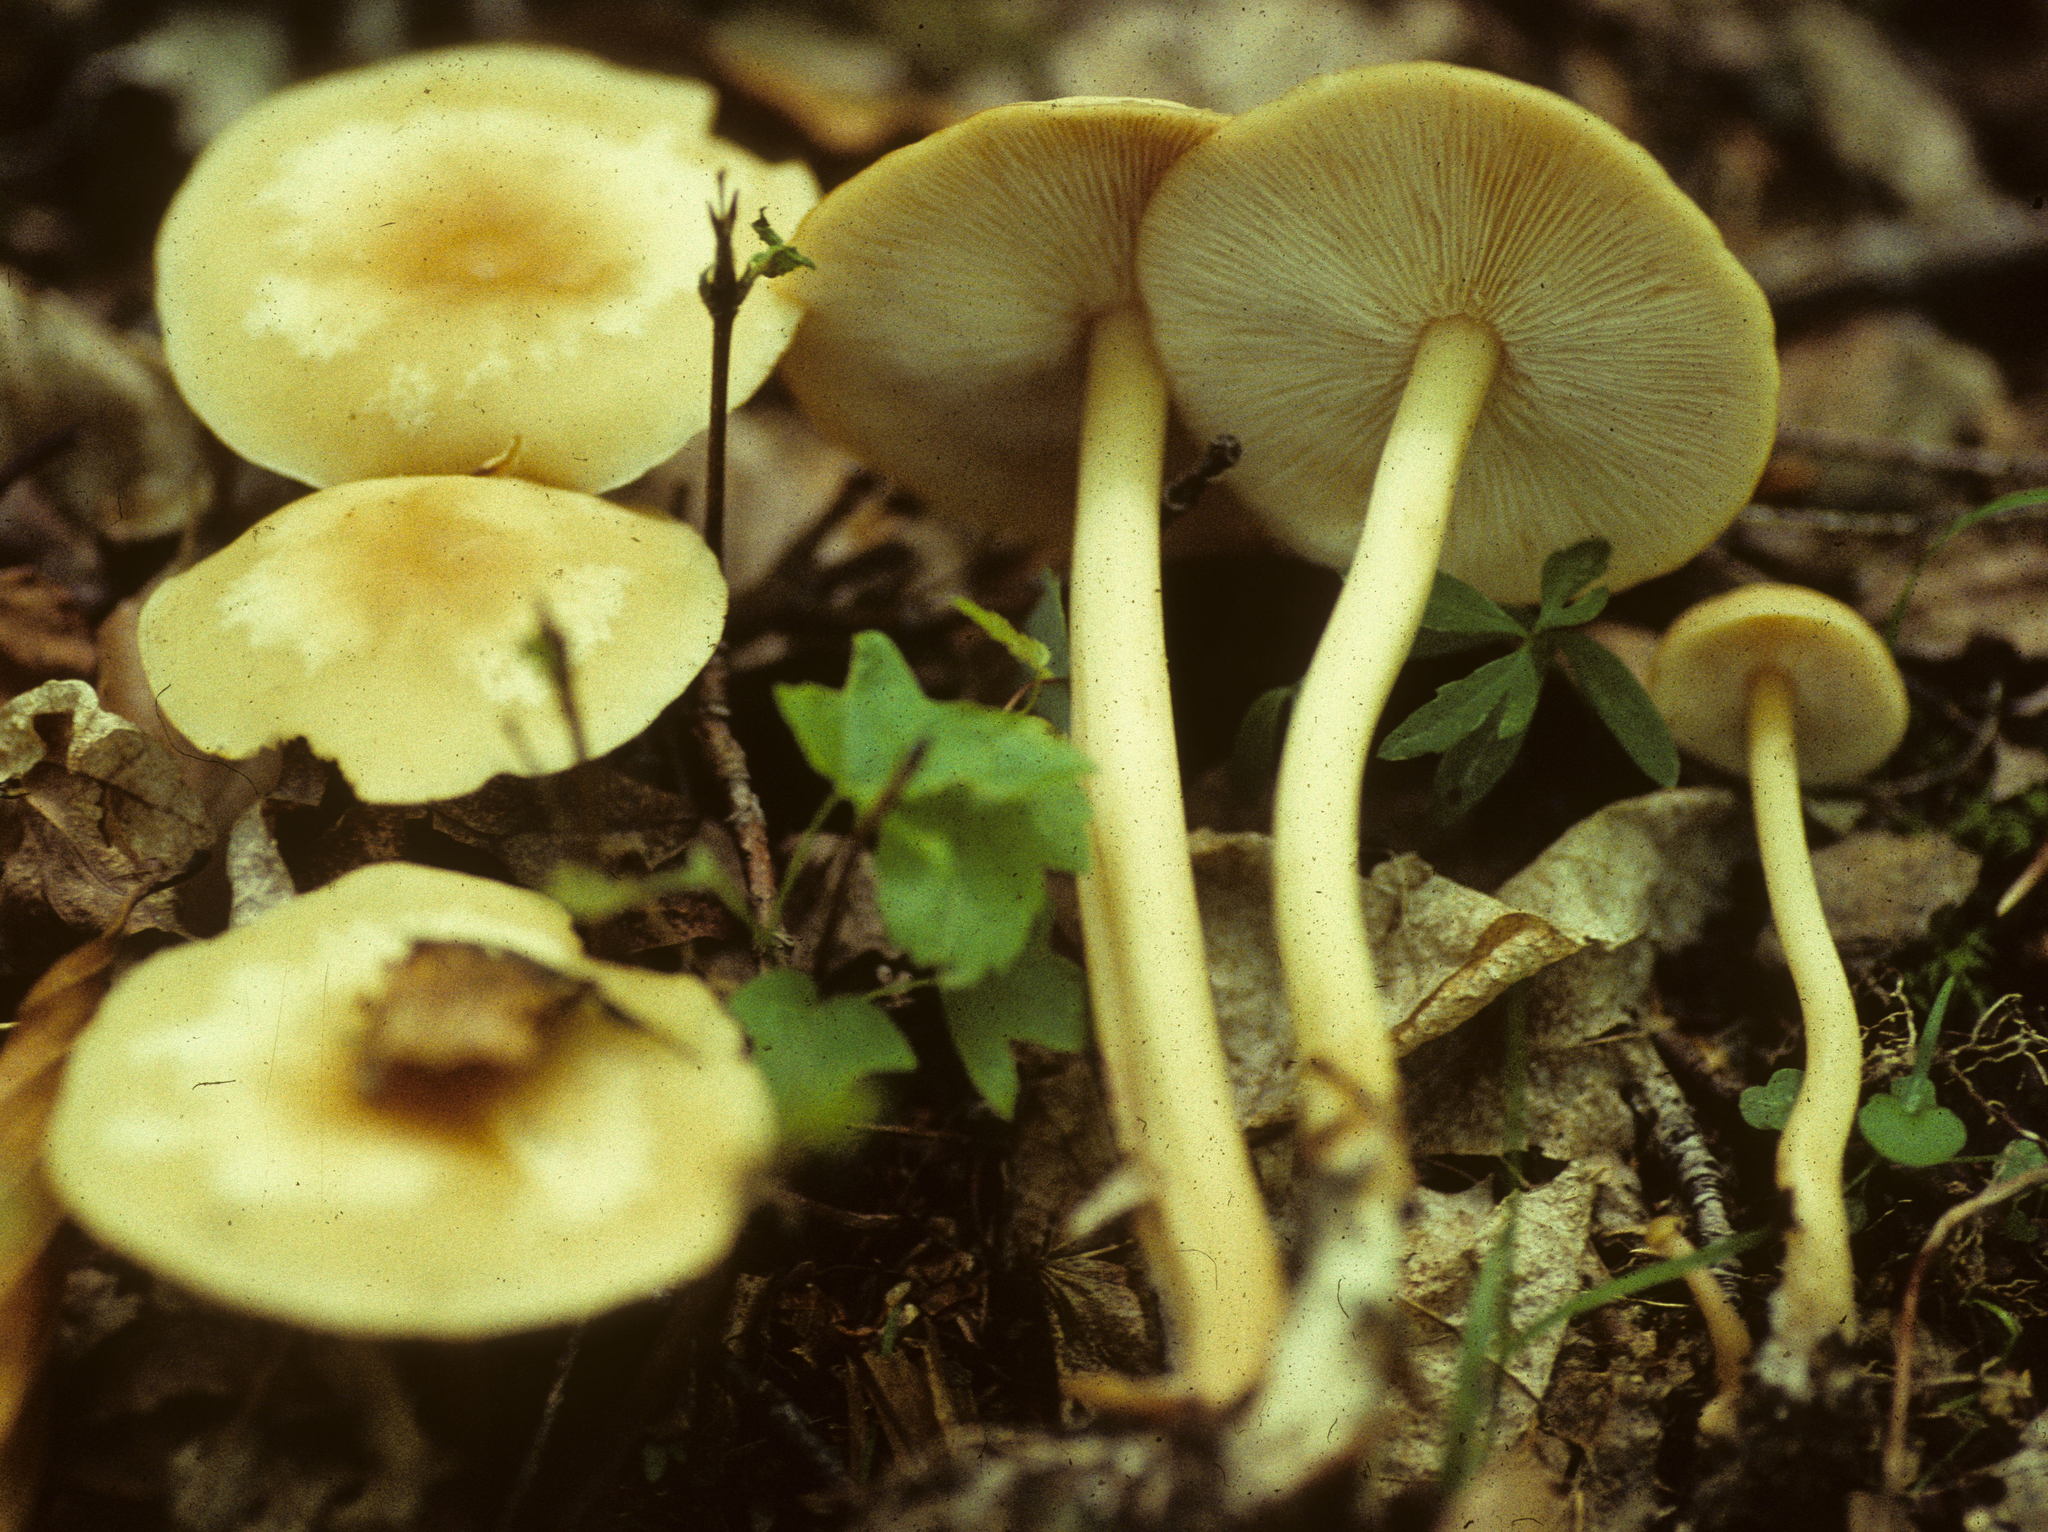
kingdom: Fungi
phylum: Basidiomycota
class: Agaricomycetes
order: Agaricales
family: Omphalotaceae
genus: Gymnopus
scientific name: Gymnopus aquosus
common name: Watery toughshank
